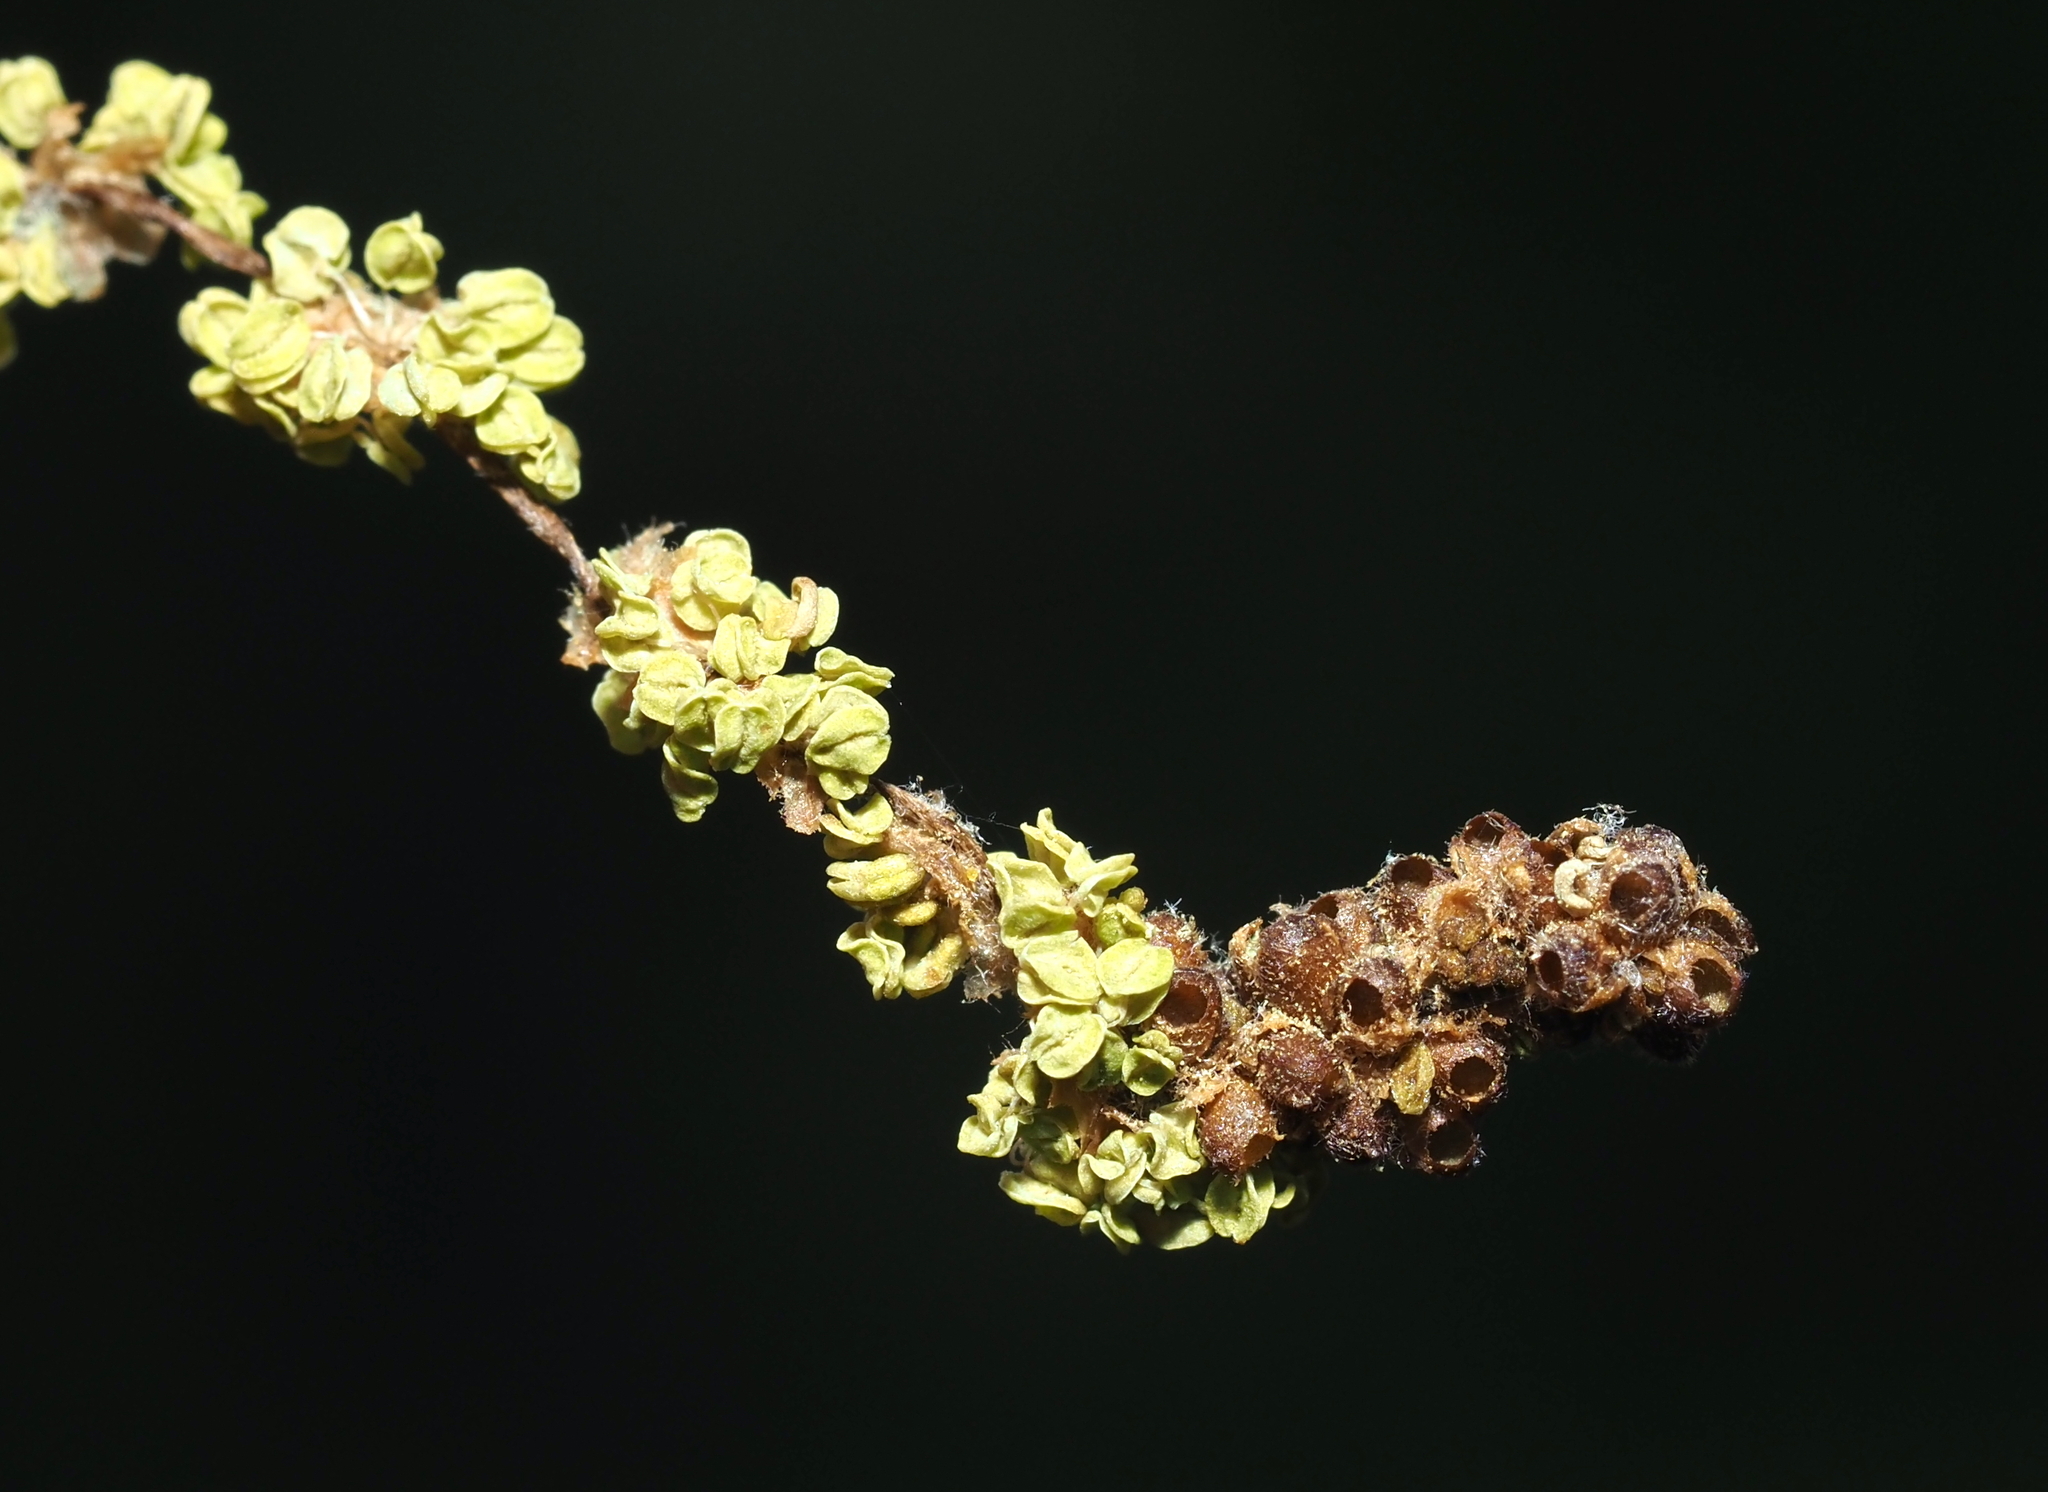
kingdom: Animalia
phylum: Arthropoda
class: Insecta
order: Hymenoptera
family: Cynipidae
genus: Callirhytis
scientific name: Callirhytis
